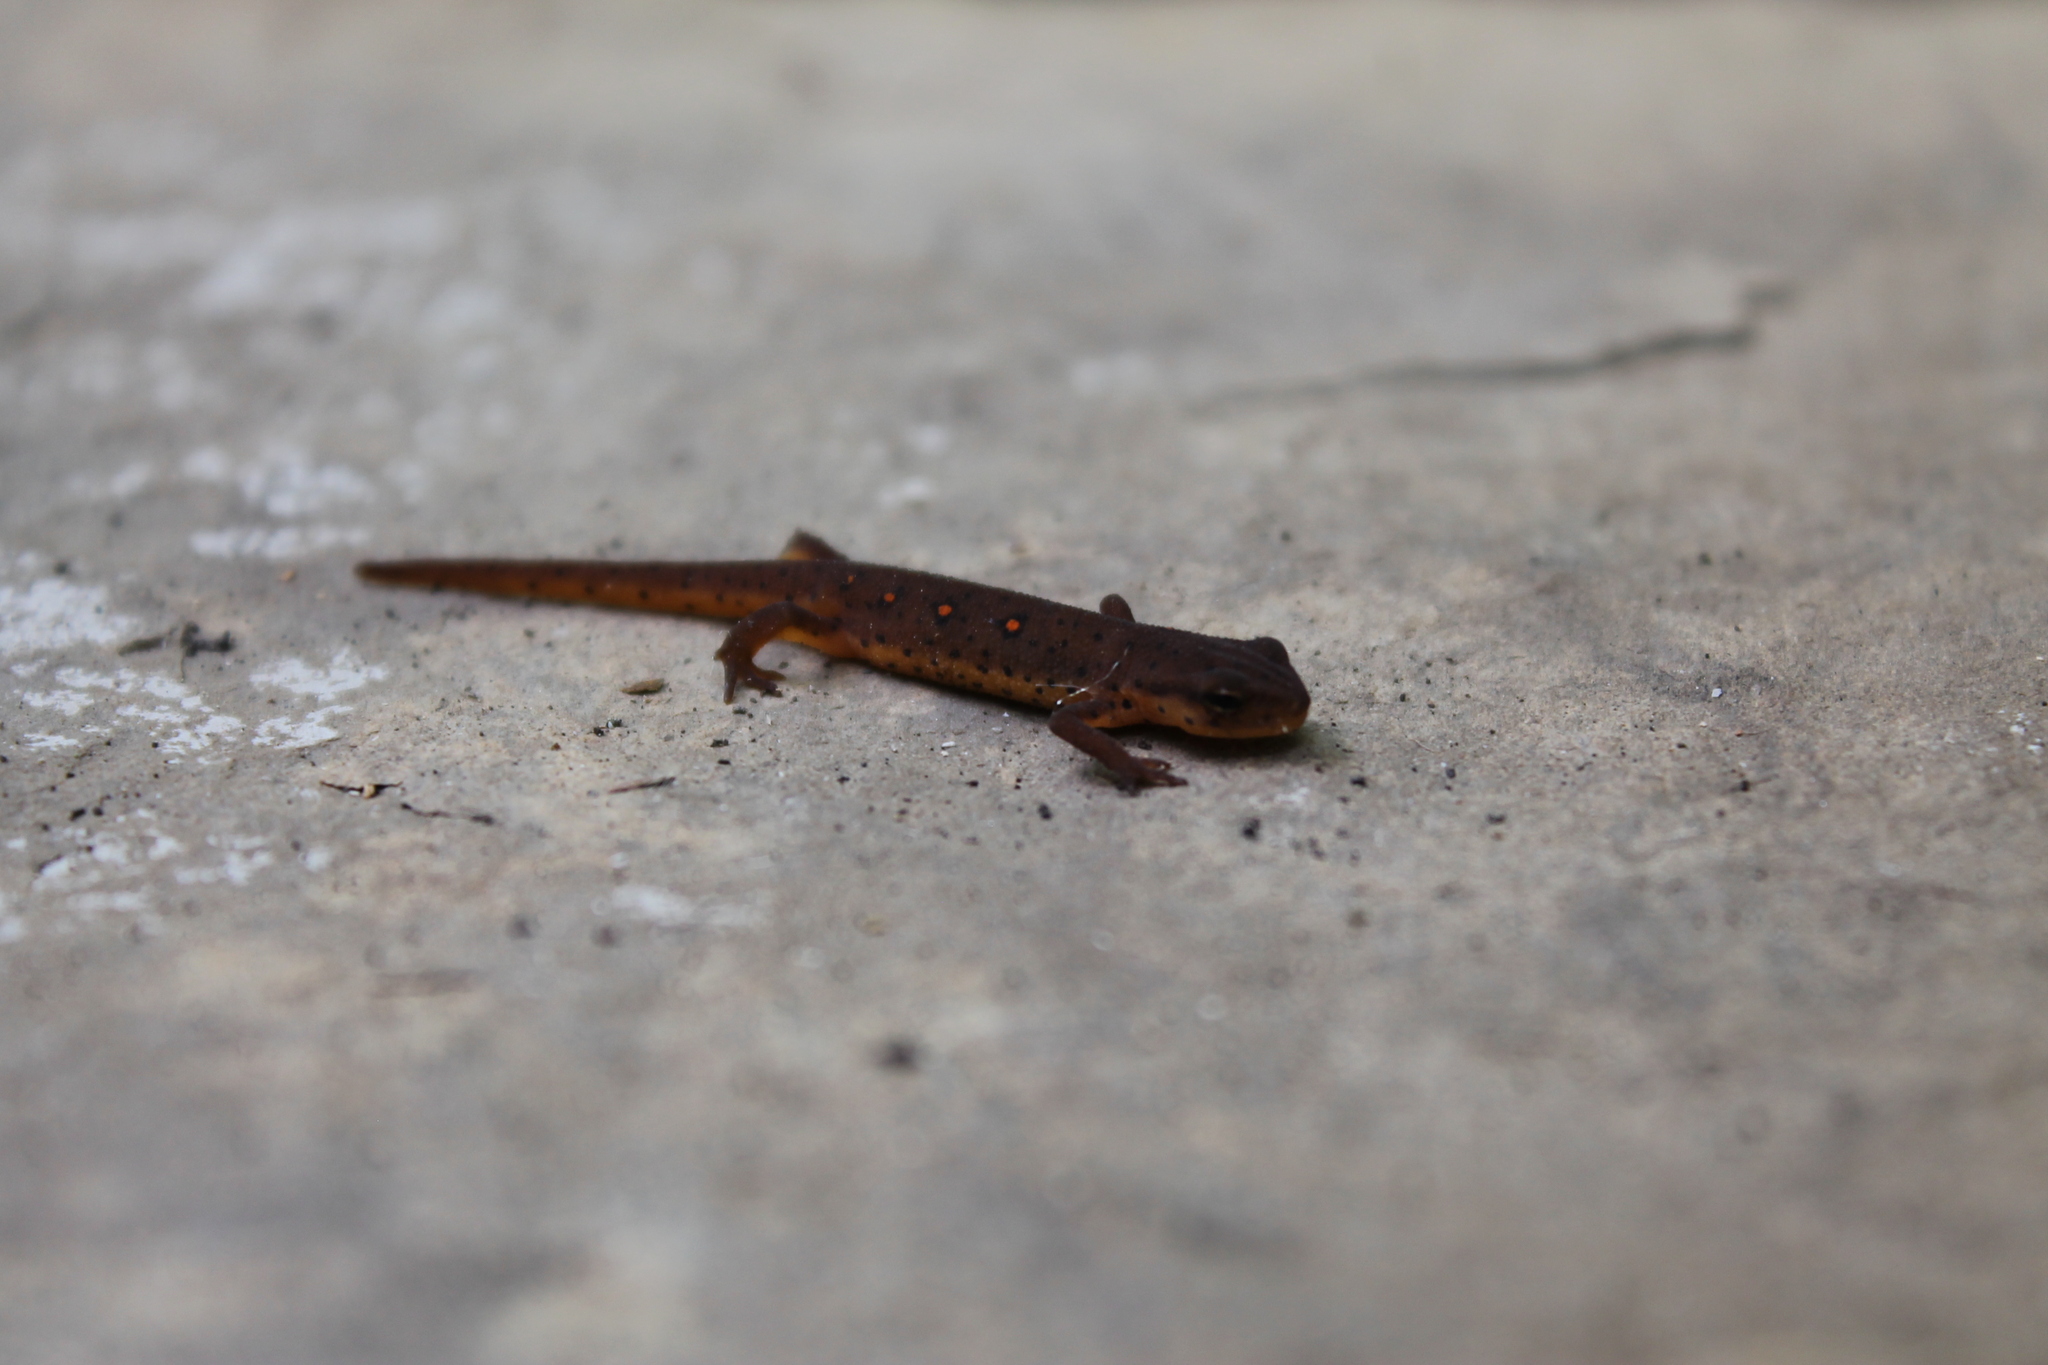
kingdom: Animalia
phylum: Chordata
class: Amphibia
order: Caudata
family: Salamandridae
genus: Notophthalmus
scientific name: Notophthalmus viridescens
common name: Eastern newt
